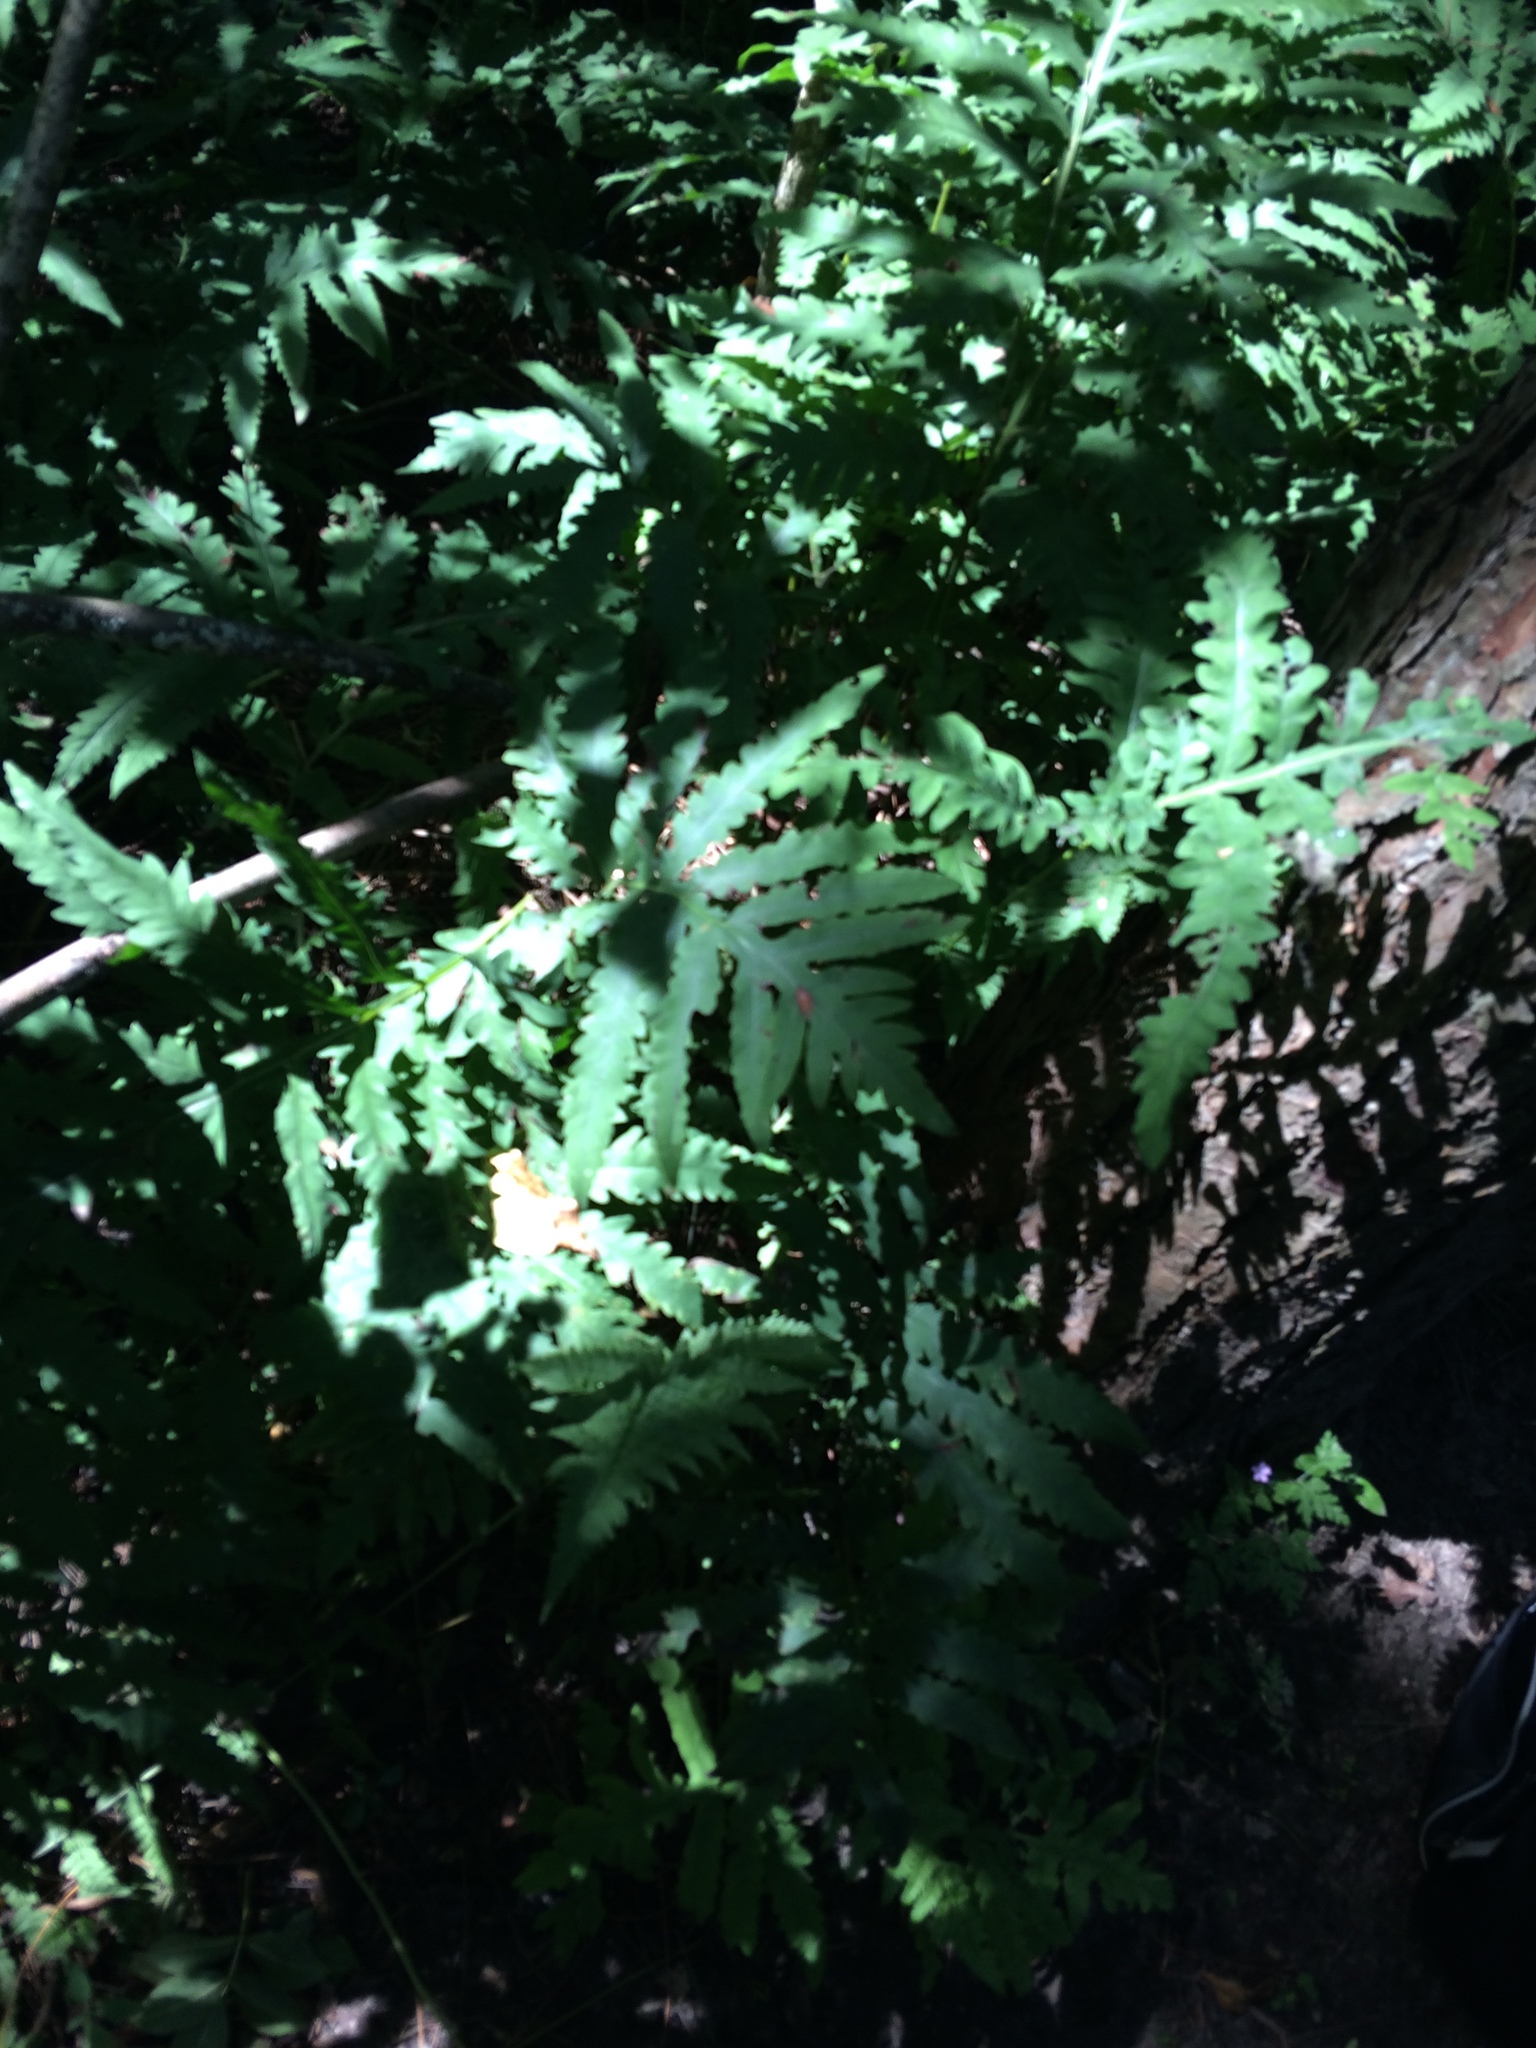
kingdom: Plantae
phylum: Tracheophyta
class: Polypodiopsida
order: Polypodiales
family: Onocleaceae
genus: Onoclea
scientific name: Onoclea sensibilis
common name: Sensitive fern
